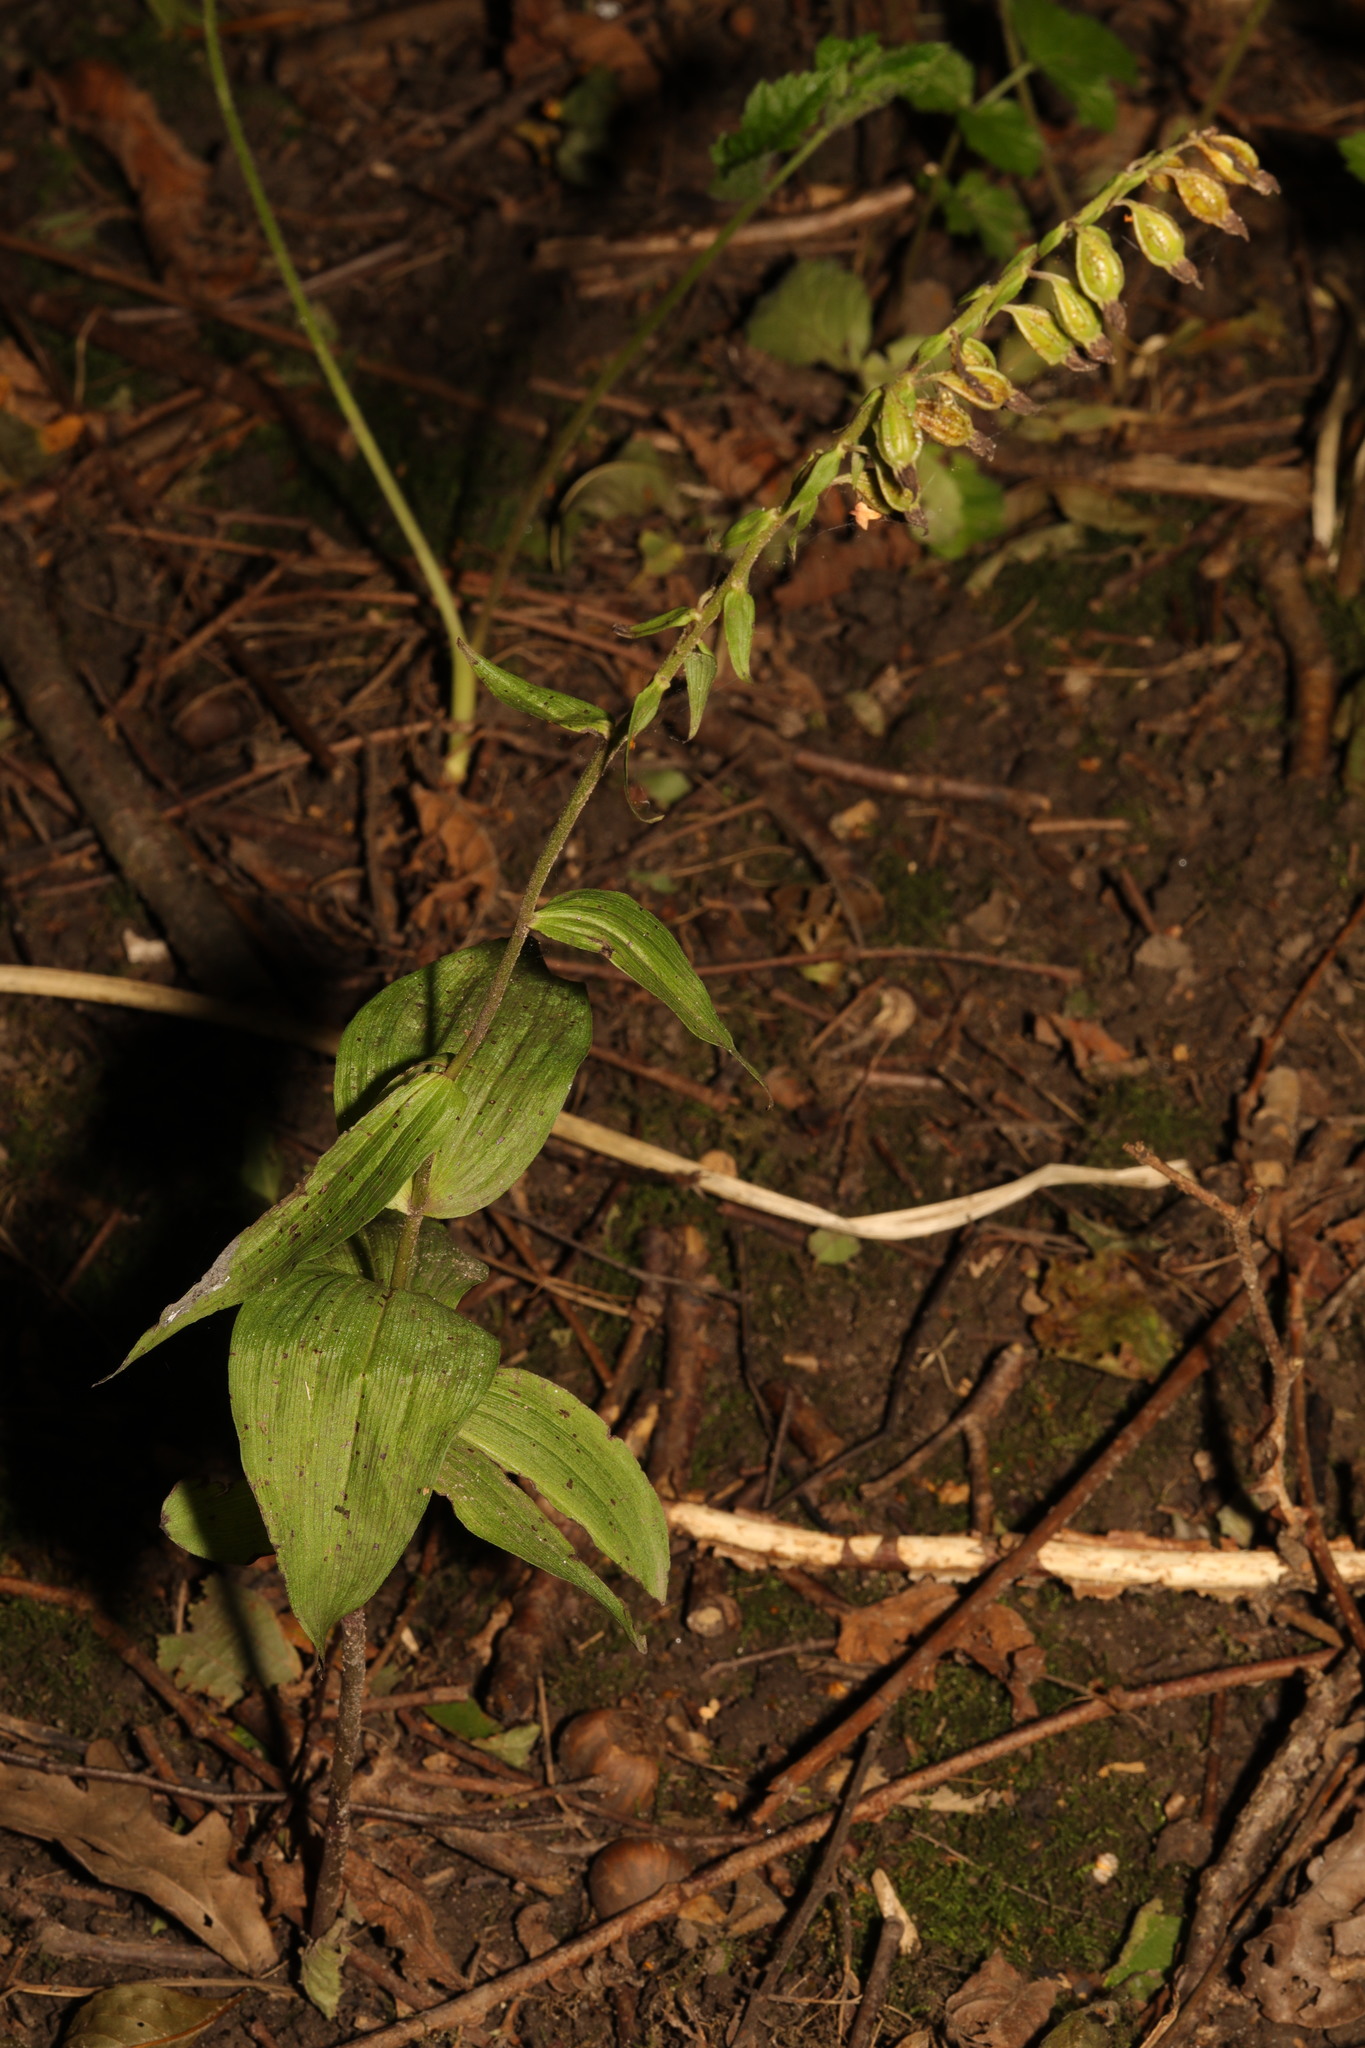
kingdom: Plantae
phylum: Tracheophyta
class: Liliopsida
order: Asparagales
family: Orchidaceae
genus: Epipactis
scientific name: Epipactis helleborine
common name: Broad-leaved helleborine
